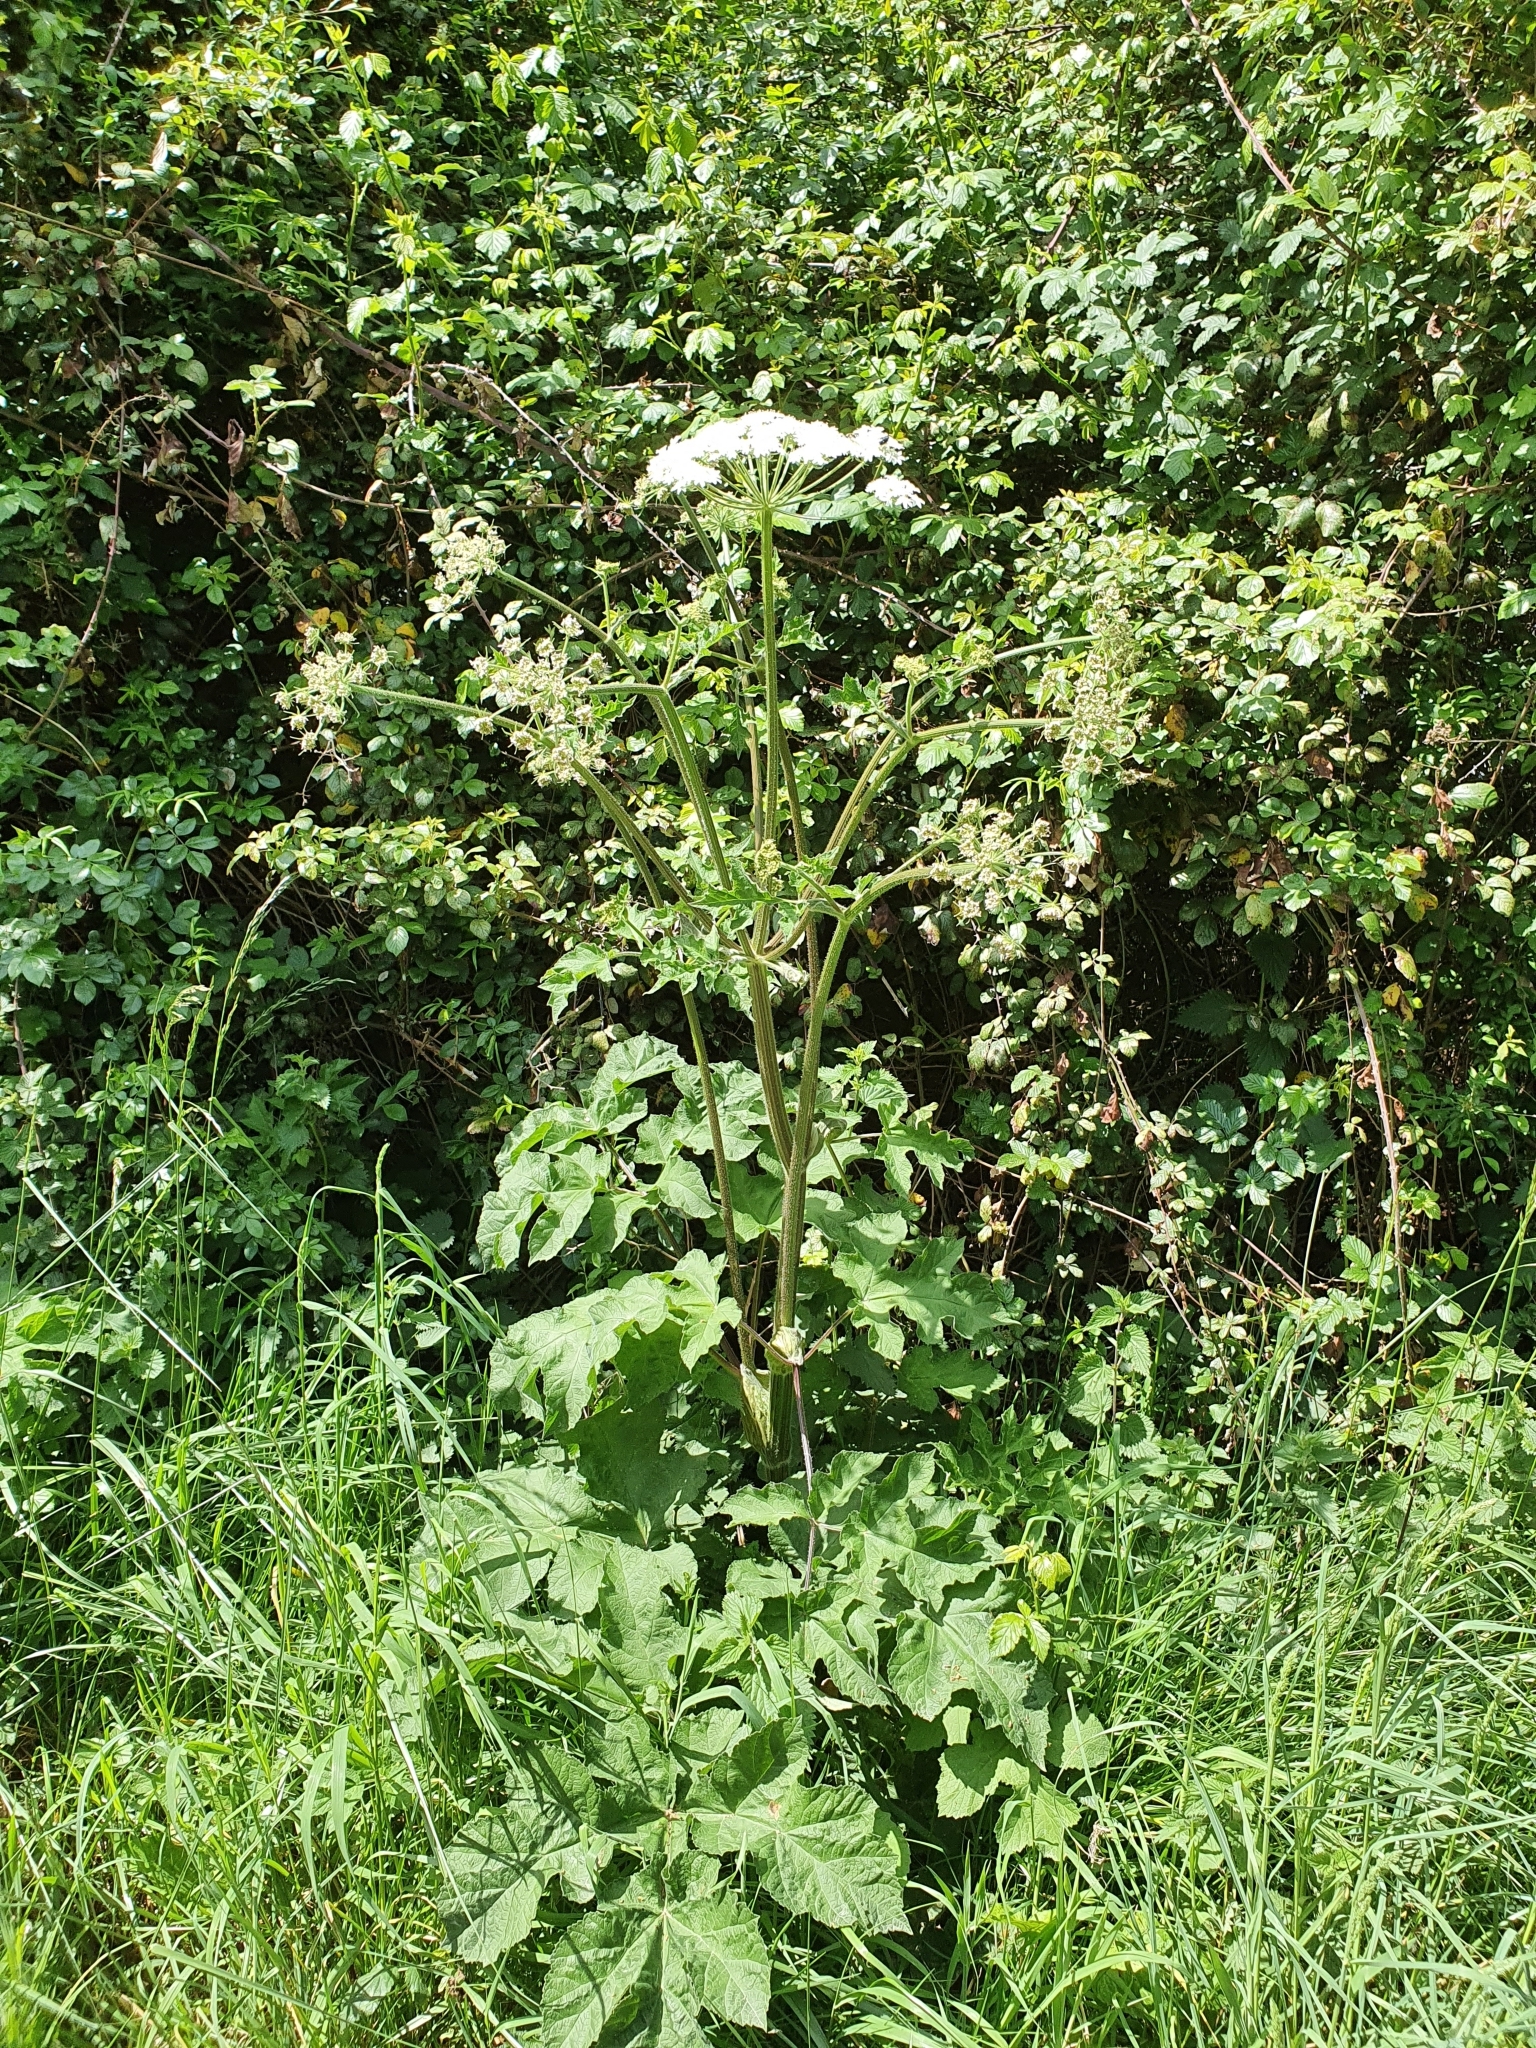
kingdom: Plantae
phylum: Tracheophyta
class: Magnoliopsida
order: Apiales
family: Apiaceae
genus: Heracleum
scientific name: Heracleum sphondylium
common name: Hogweed
